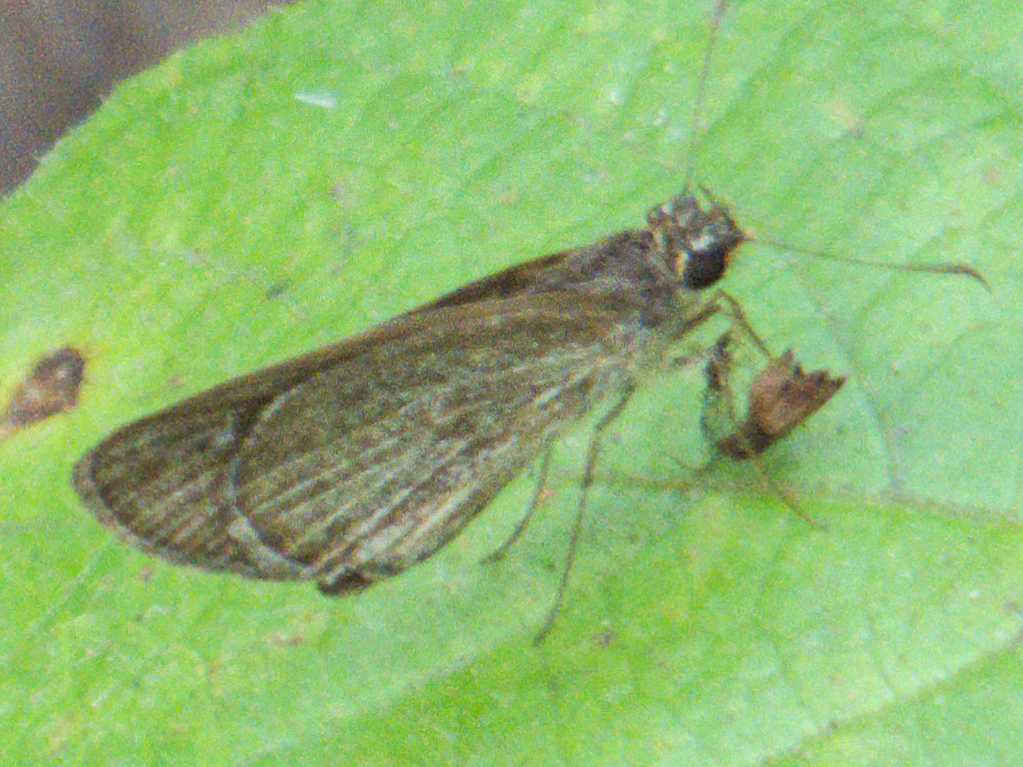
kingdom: Animalia
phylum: Arthropoda
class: Insecta
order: Lepidoptera
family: Hesperiidae
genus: Suada
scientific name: Suada swerga
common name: Grass bob
